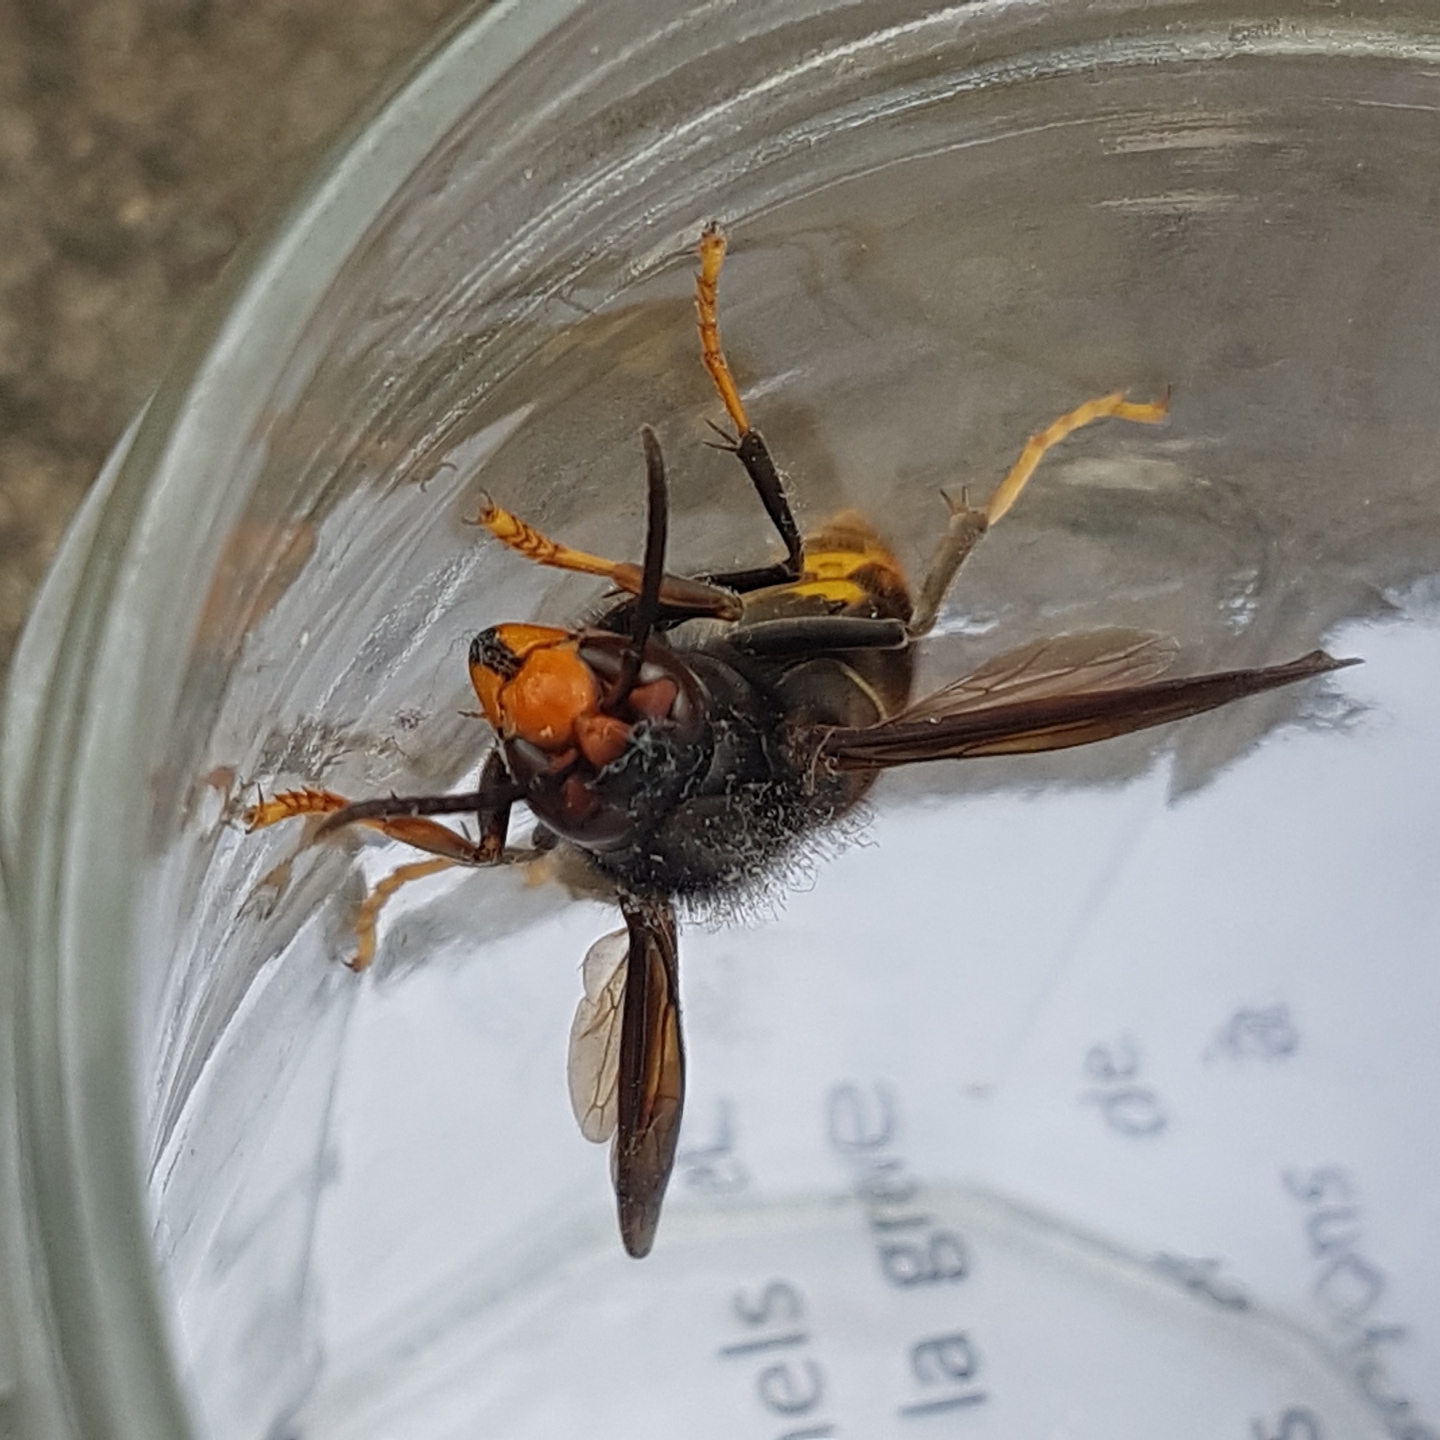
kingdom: Animalia
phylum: Arthropoda
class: Insecta
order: Hymenoptera
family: Vespidae
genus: Vespa
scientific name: Vespa velutina
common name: Asian hornet
